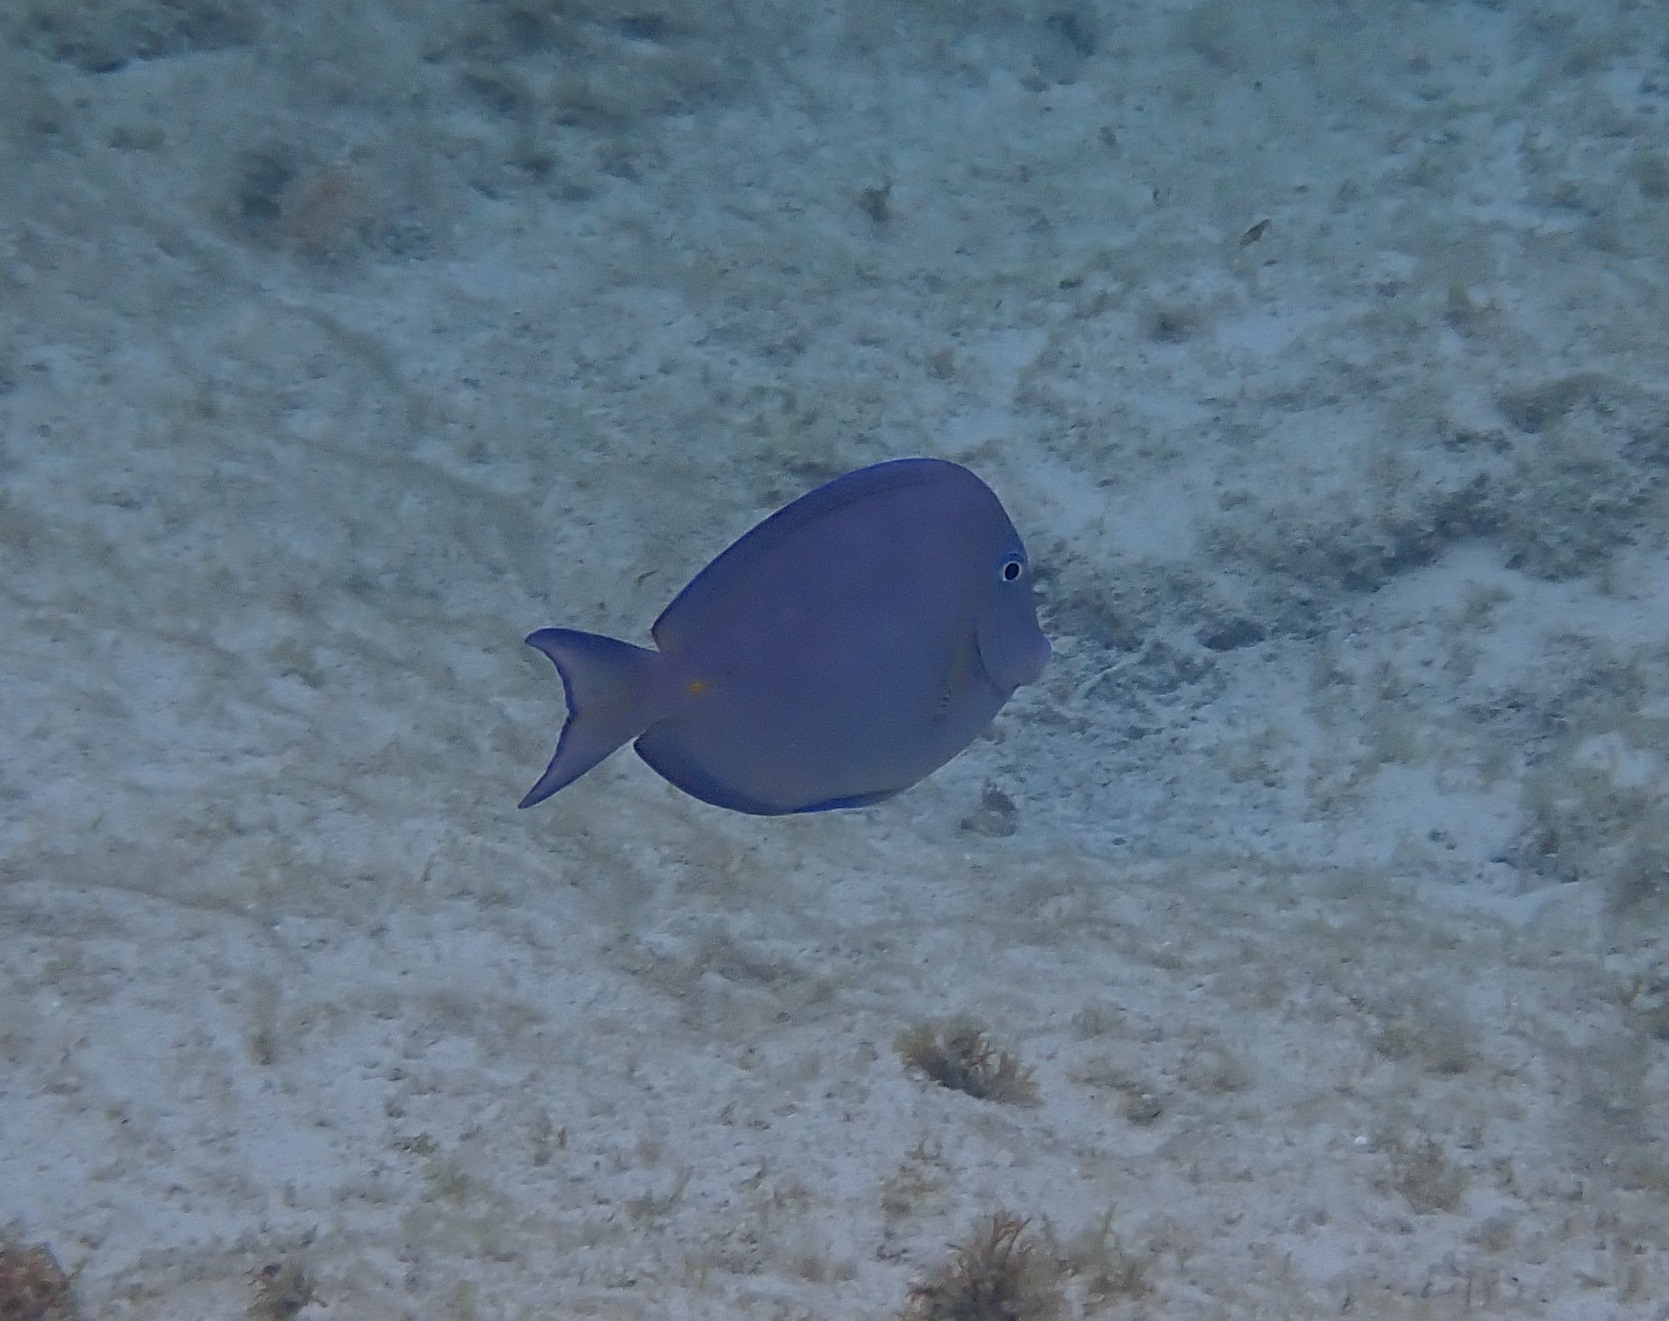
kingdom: Animalia
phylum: Chordata
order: Perciformes
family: Acanthuridae
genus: Acanthurus
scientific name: Acanthurus coeruleus
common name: Blue tang
